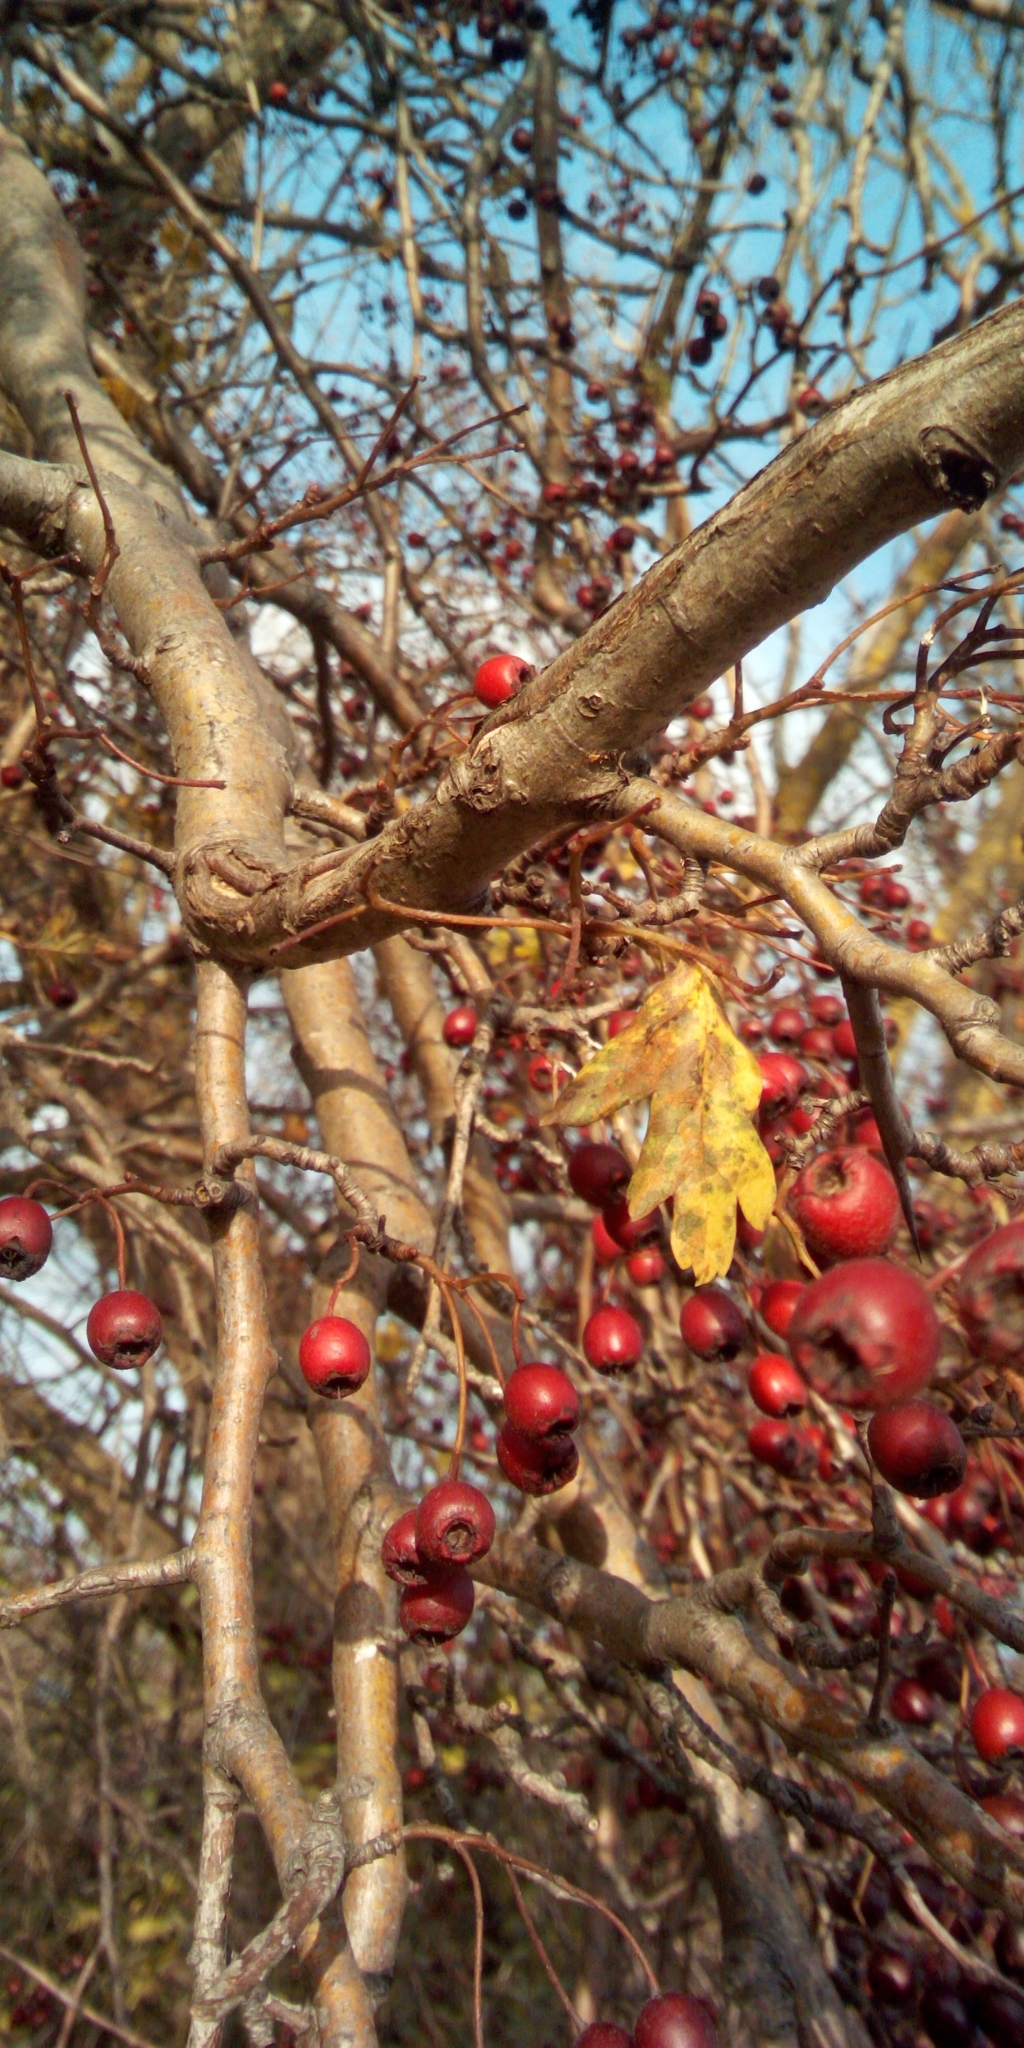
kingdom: Plantae
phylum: Tracheophyta
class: Magnoliopsida
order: Rosales
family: Rosaceae
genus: Crataegus
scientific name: Crataegus
